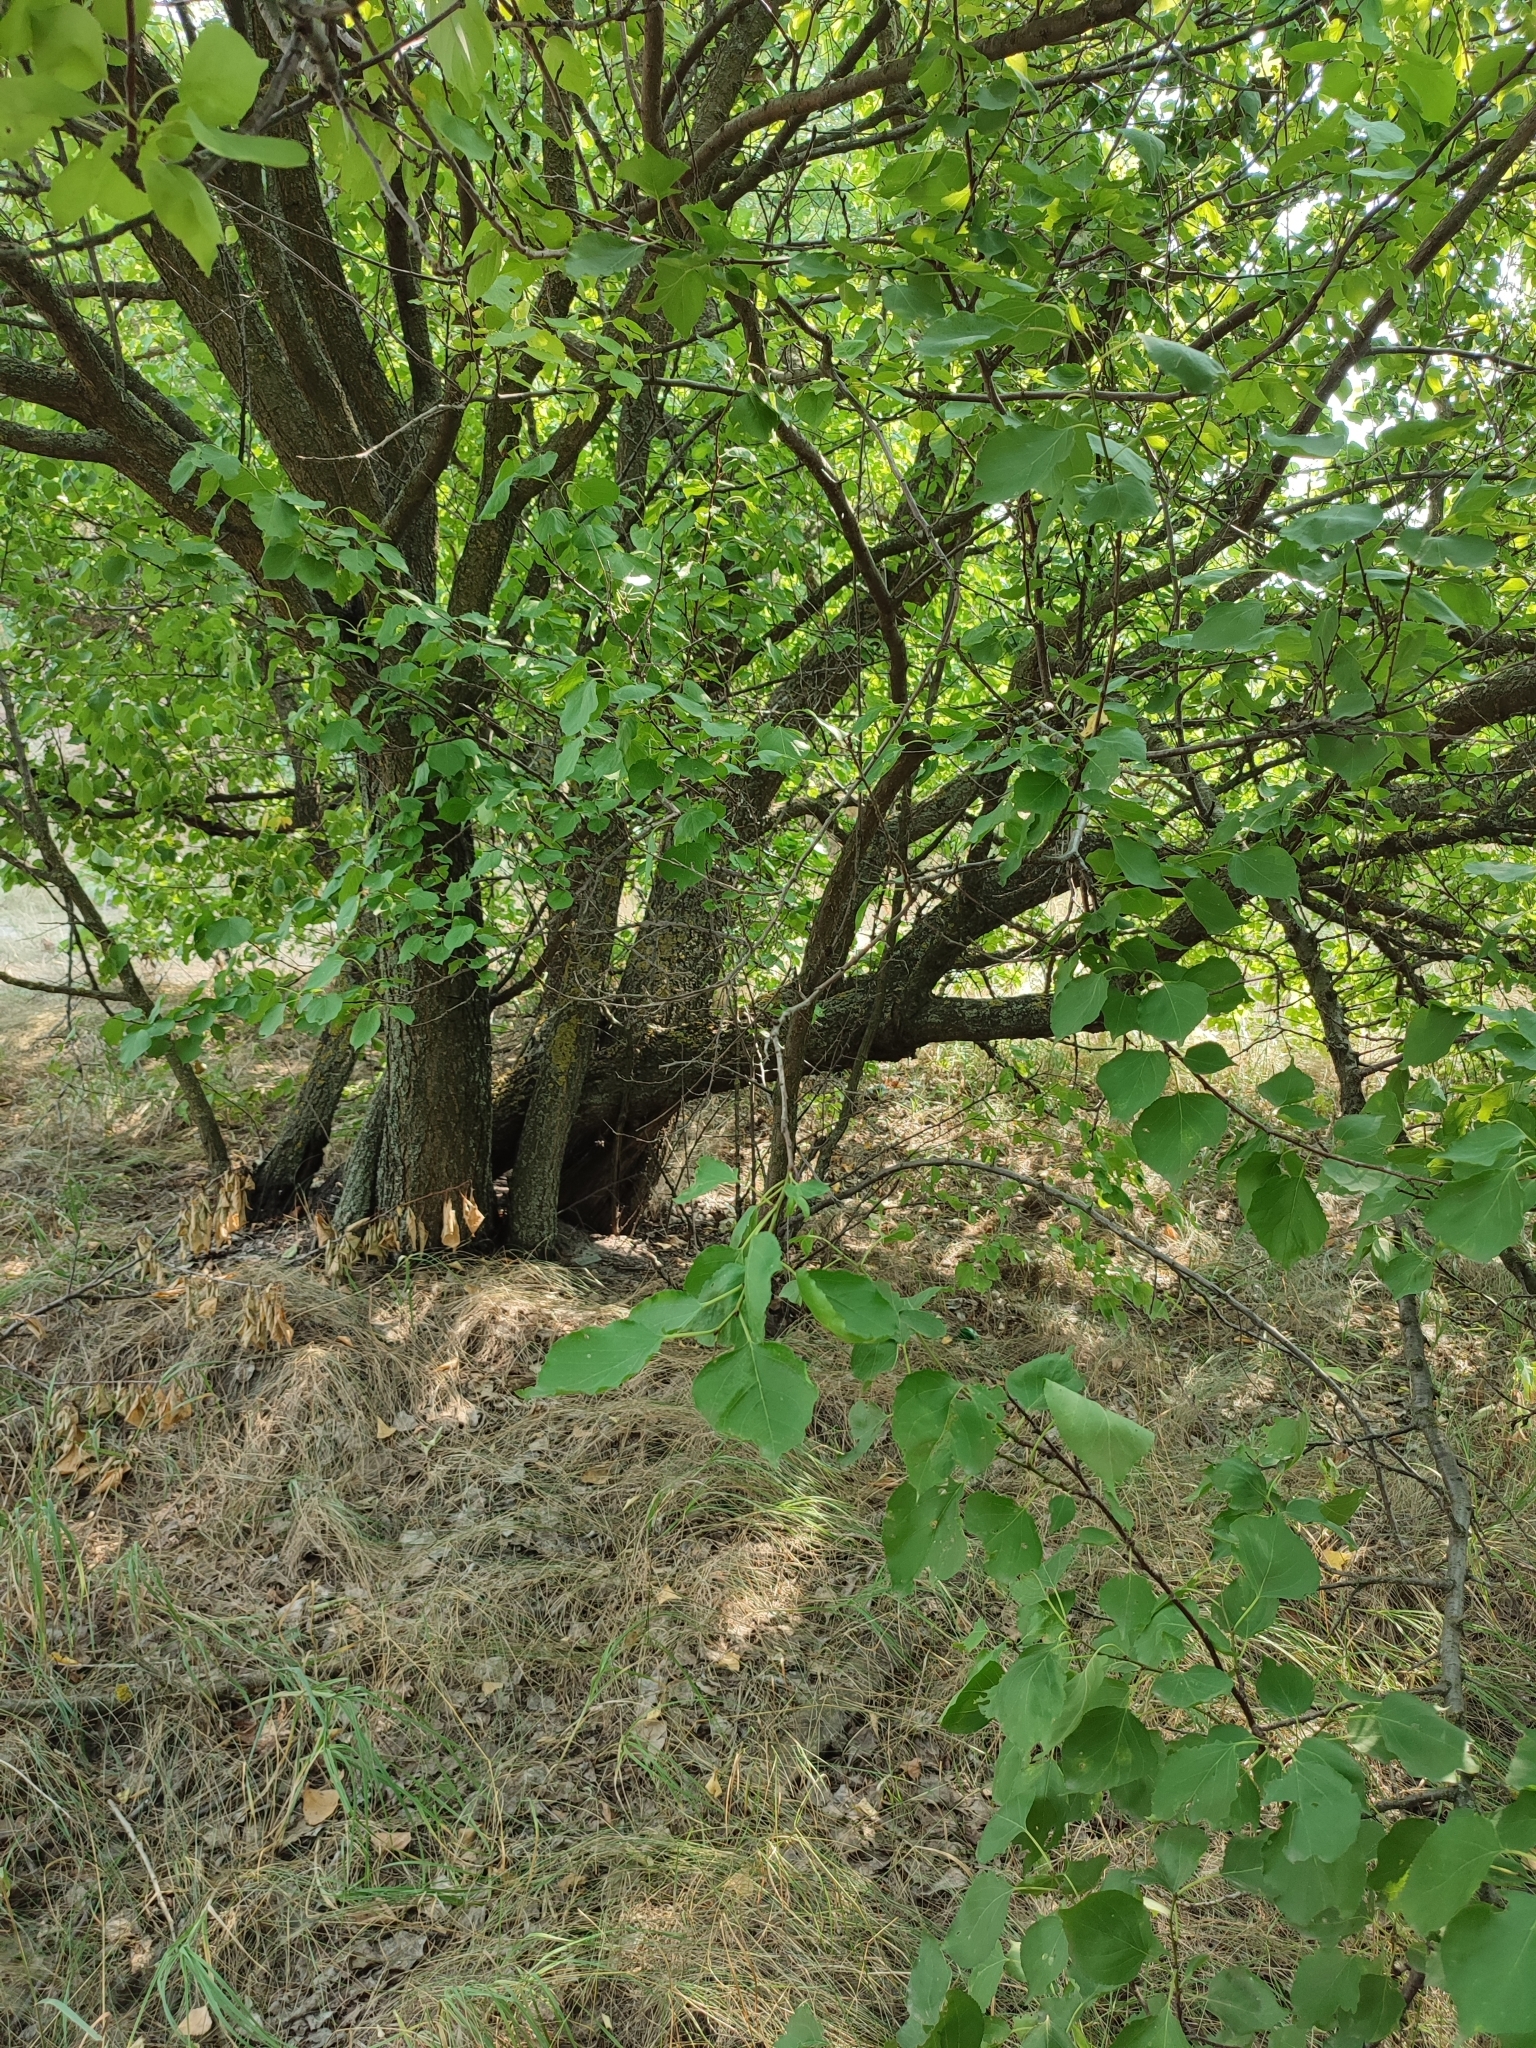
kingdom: Plantae
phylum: Tracheophyta
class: Magnoliopsida
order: Rosales
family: Rosaceae
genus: Prunus
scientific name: Prunus armeniaca
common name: Apricot
